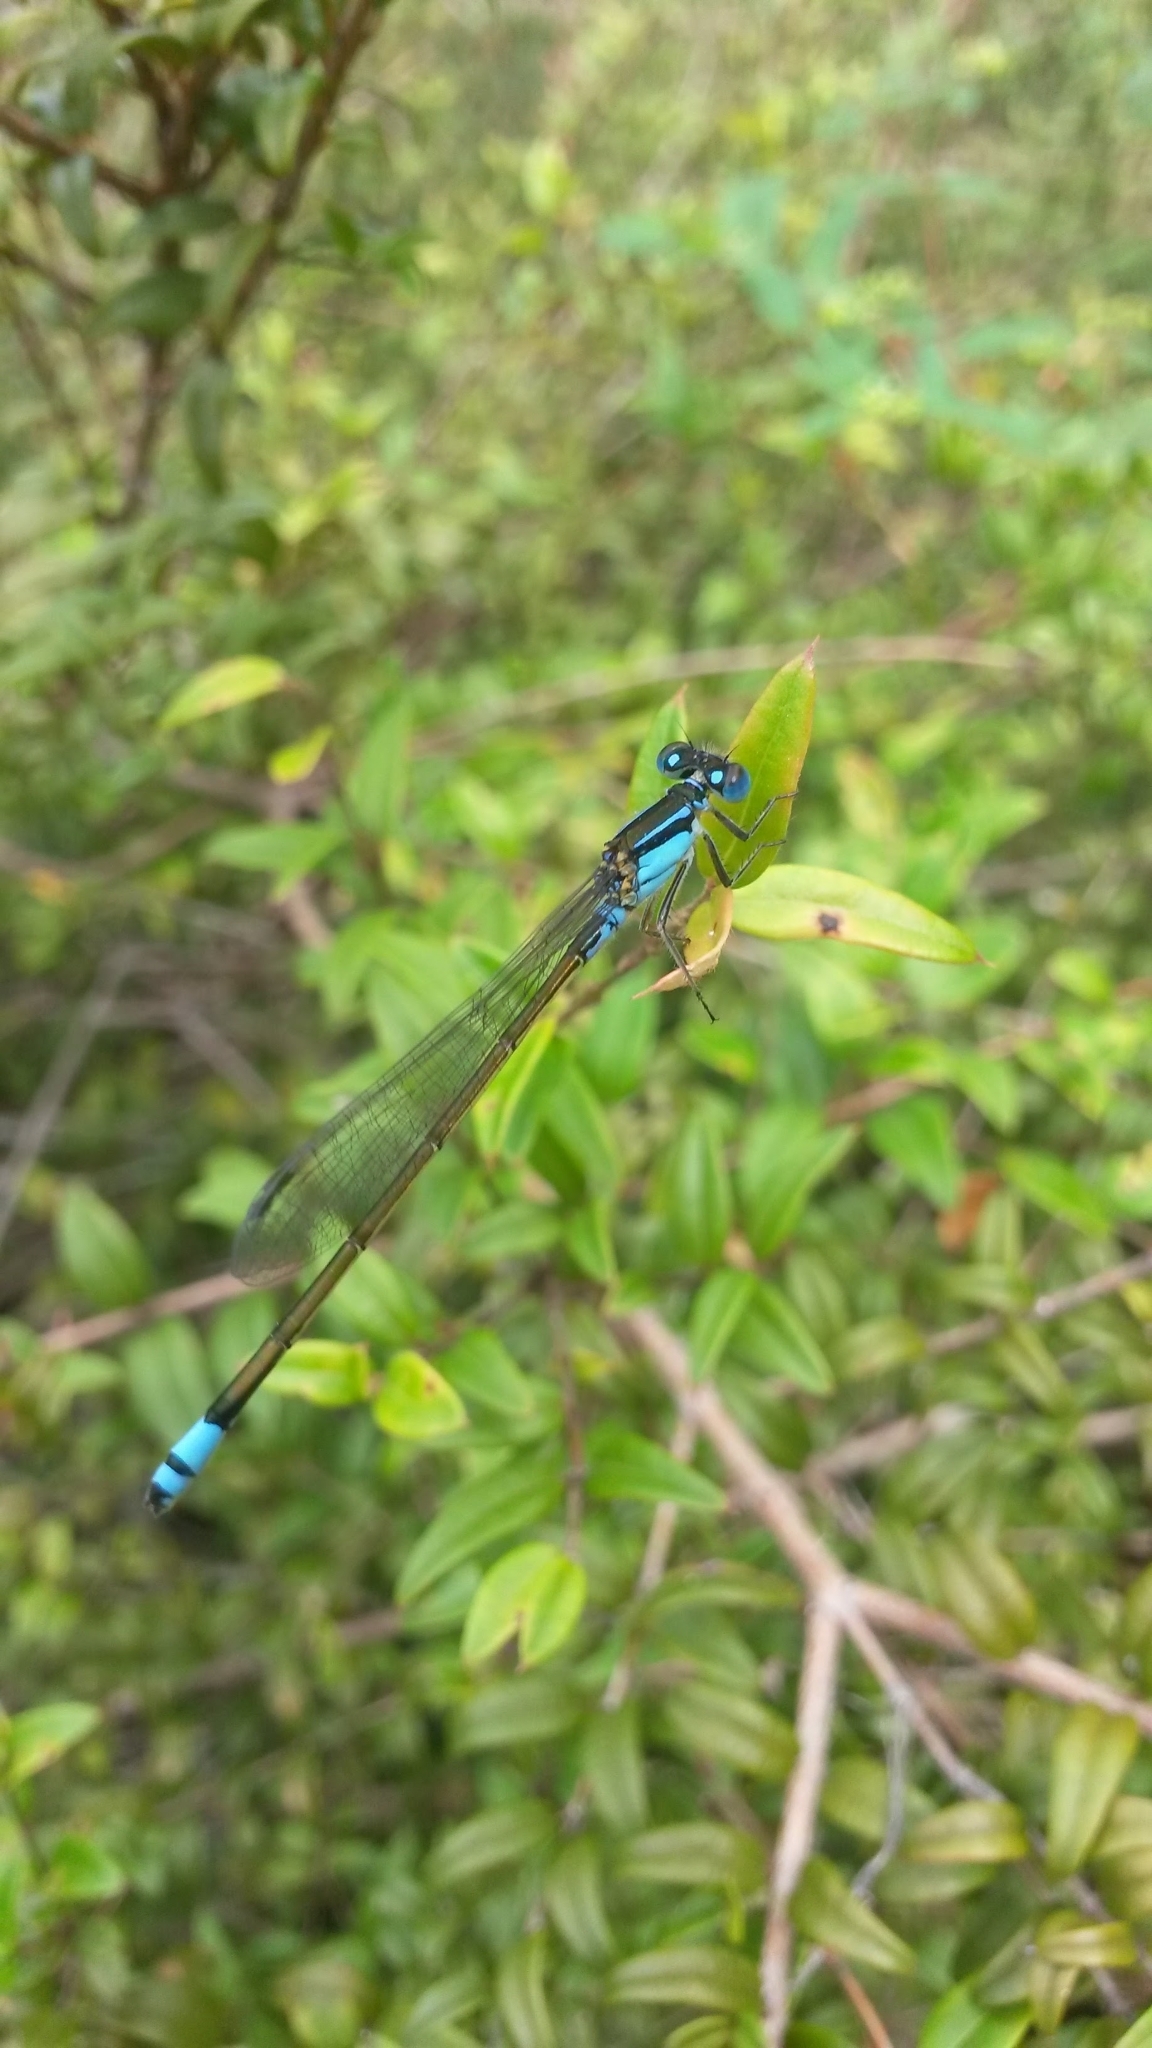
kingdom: Animalia
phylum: Arthropoda
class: Insecta
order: Odonata
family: Coenagrionidae
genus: Ischnura
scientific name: Ischnura heterosticta
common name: Common bluetail
